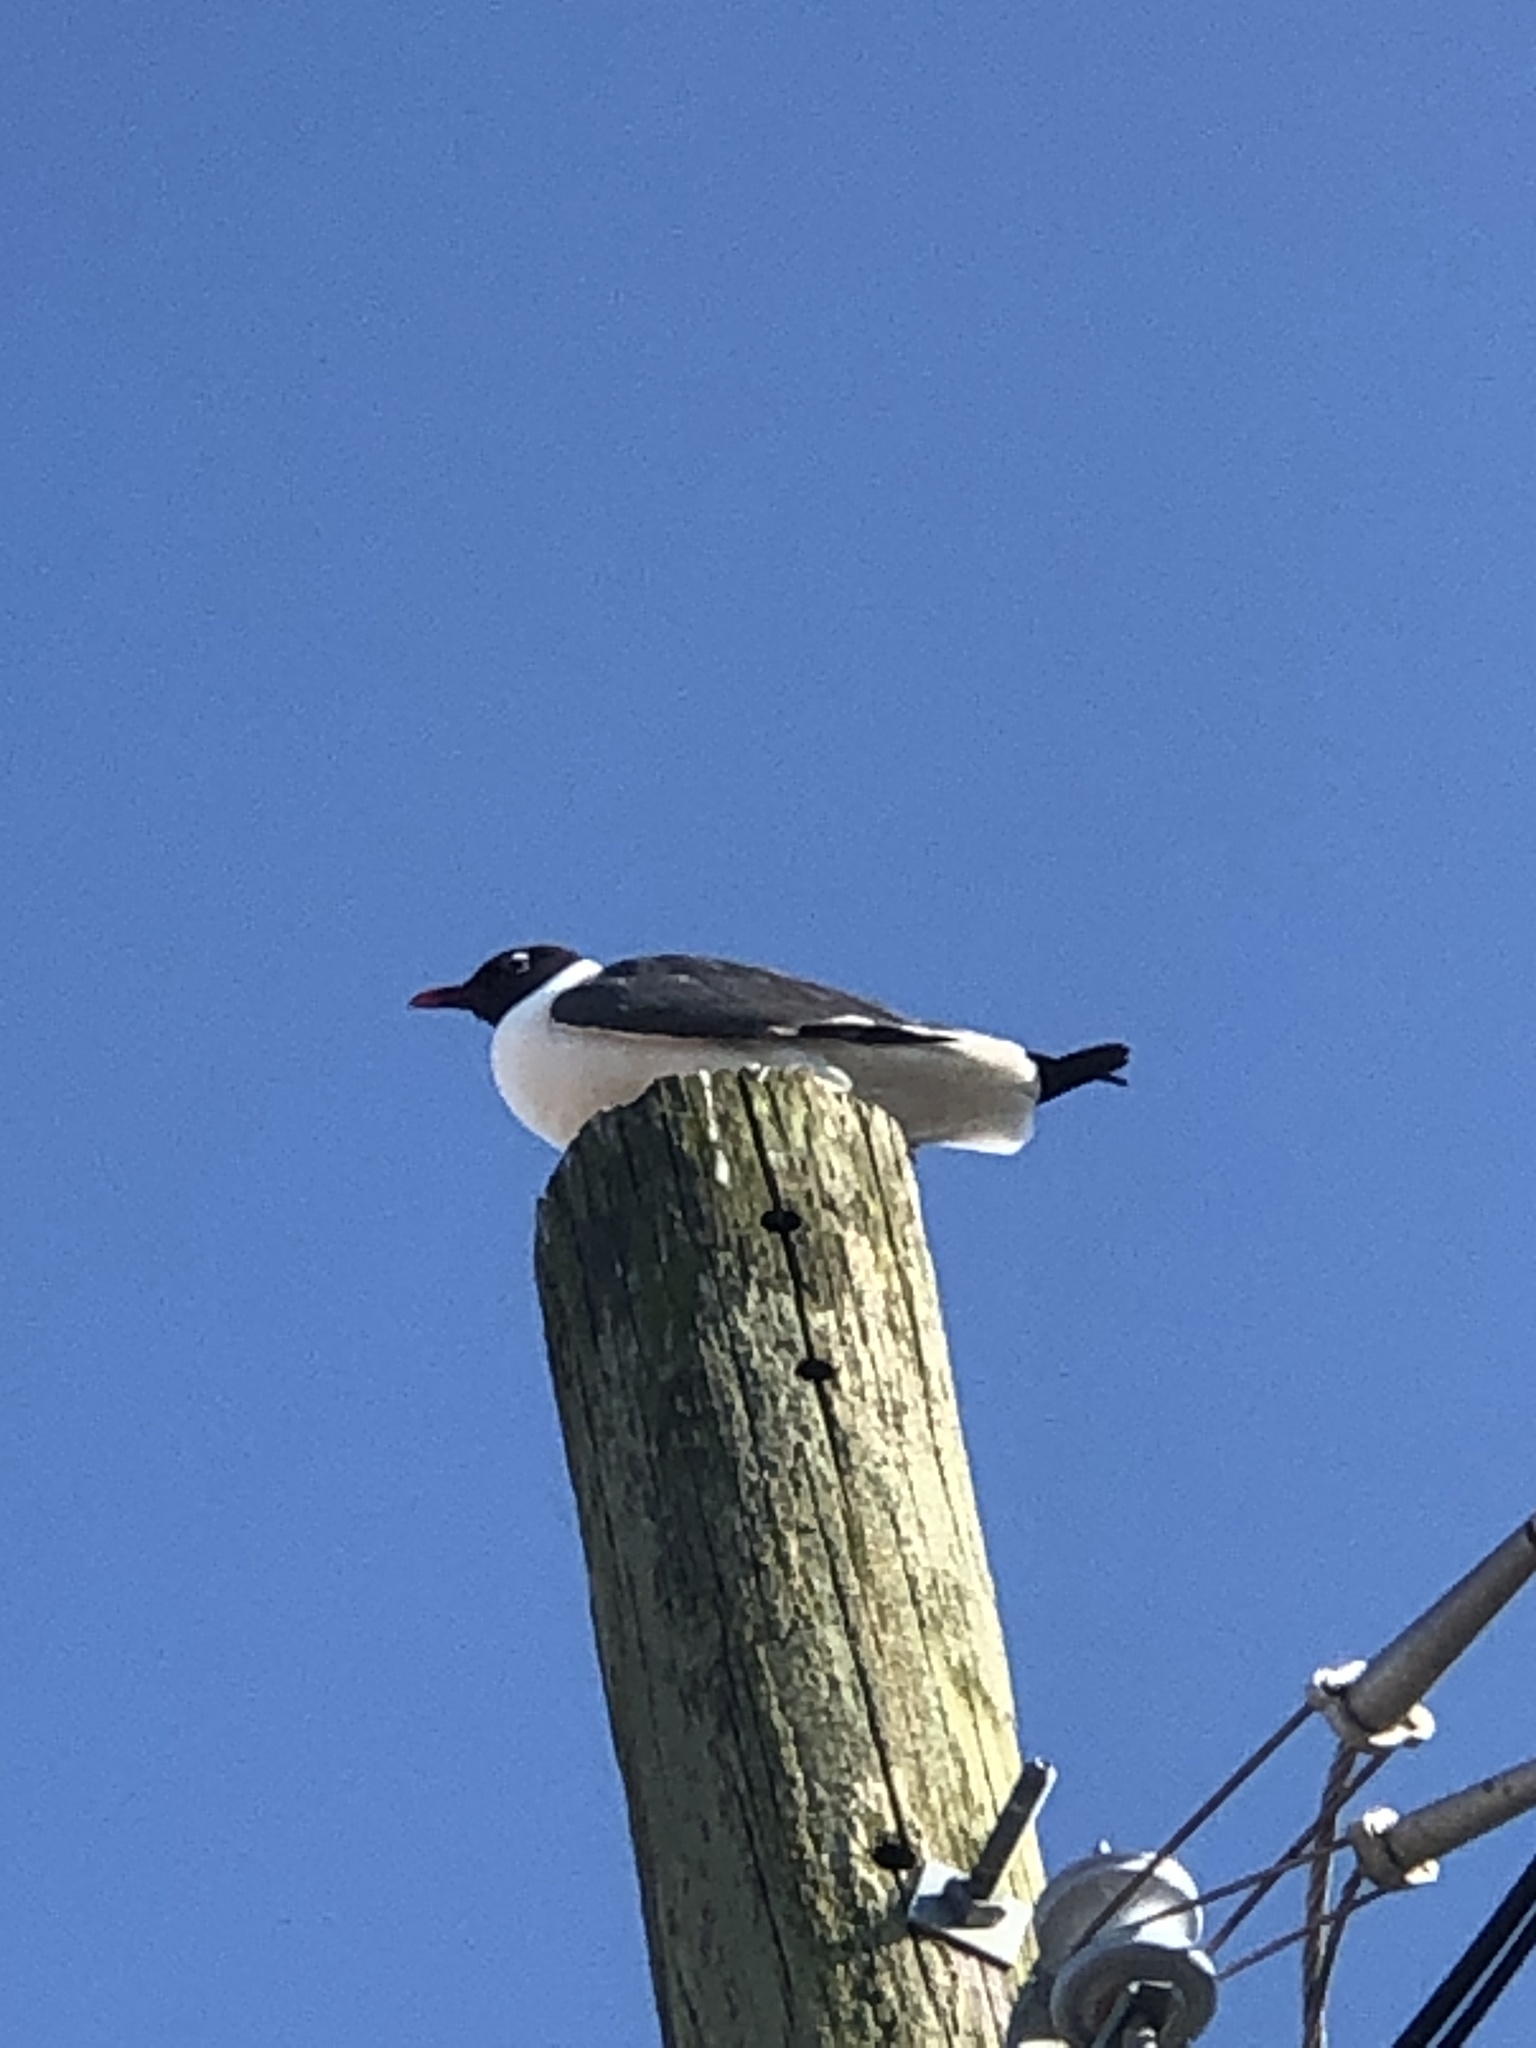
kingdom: Animalia
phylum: Chordata
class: Aves
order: Charadriiformes
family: Laridae
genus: Leucophaeus
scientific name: Leucophaeus atricilla
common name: Laughing gull
